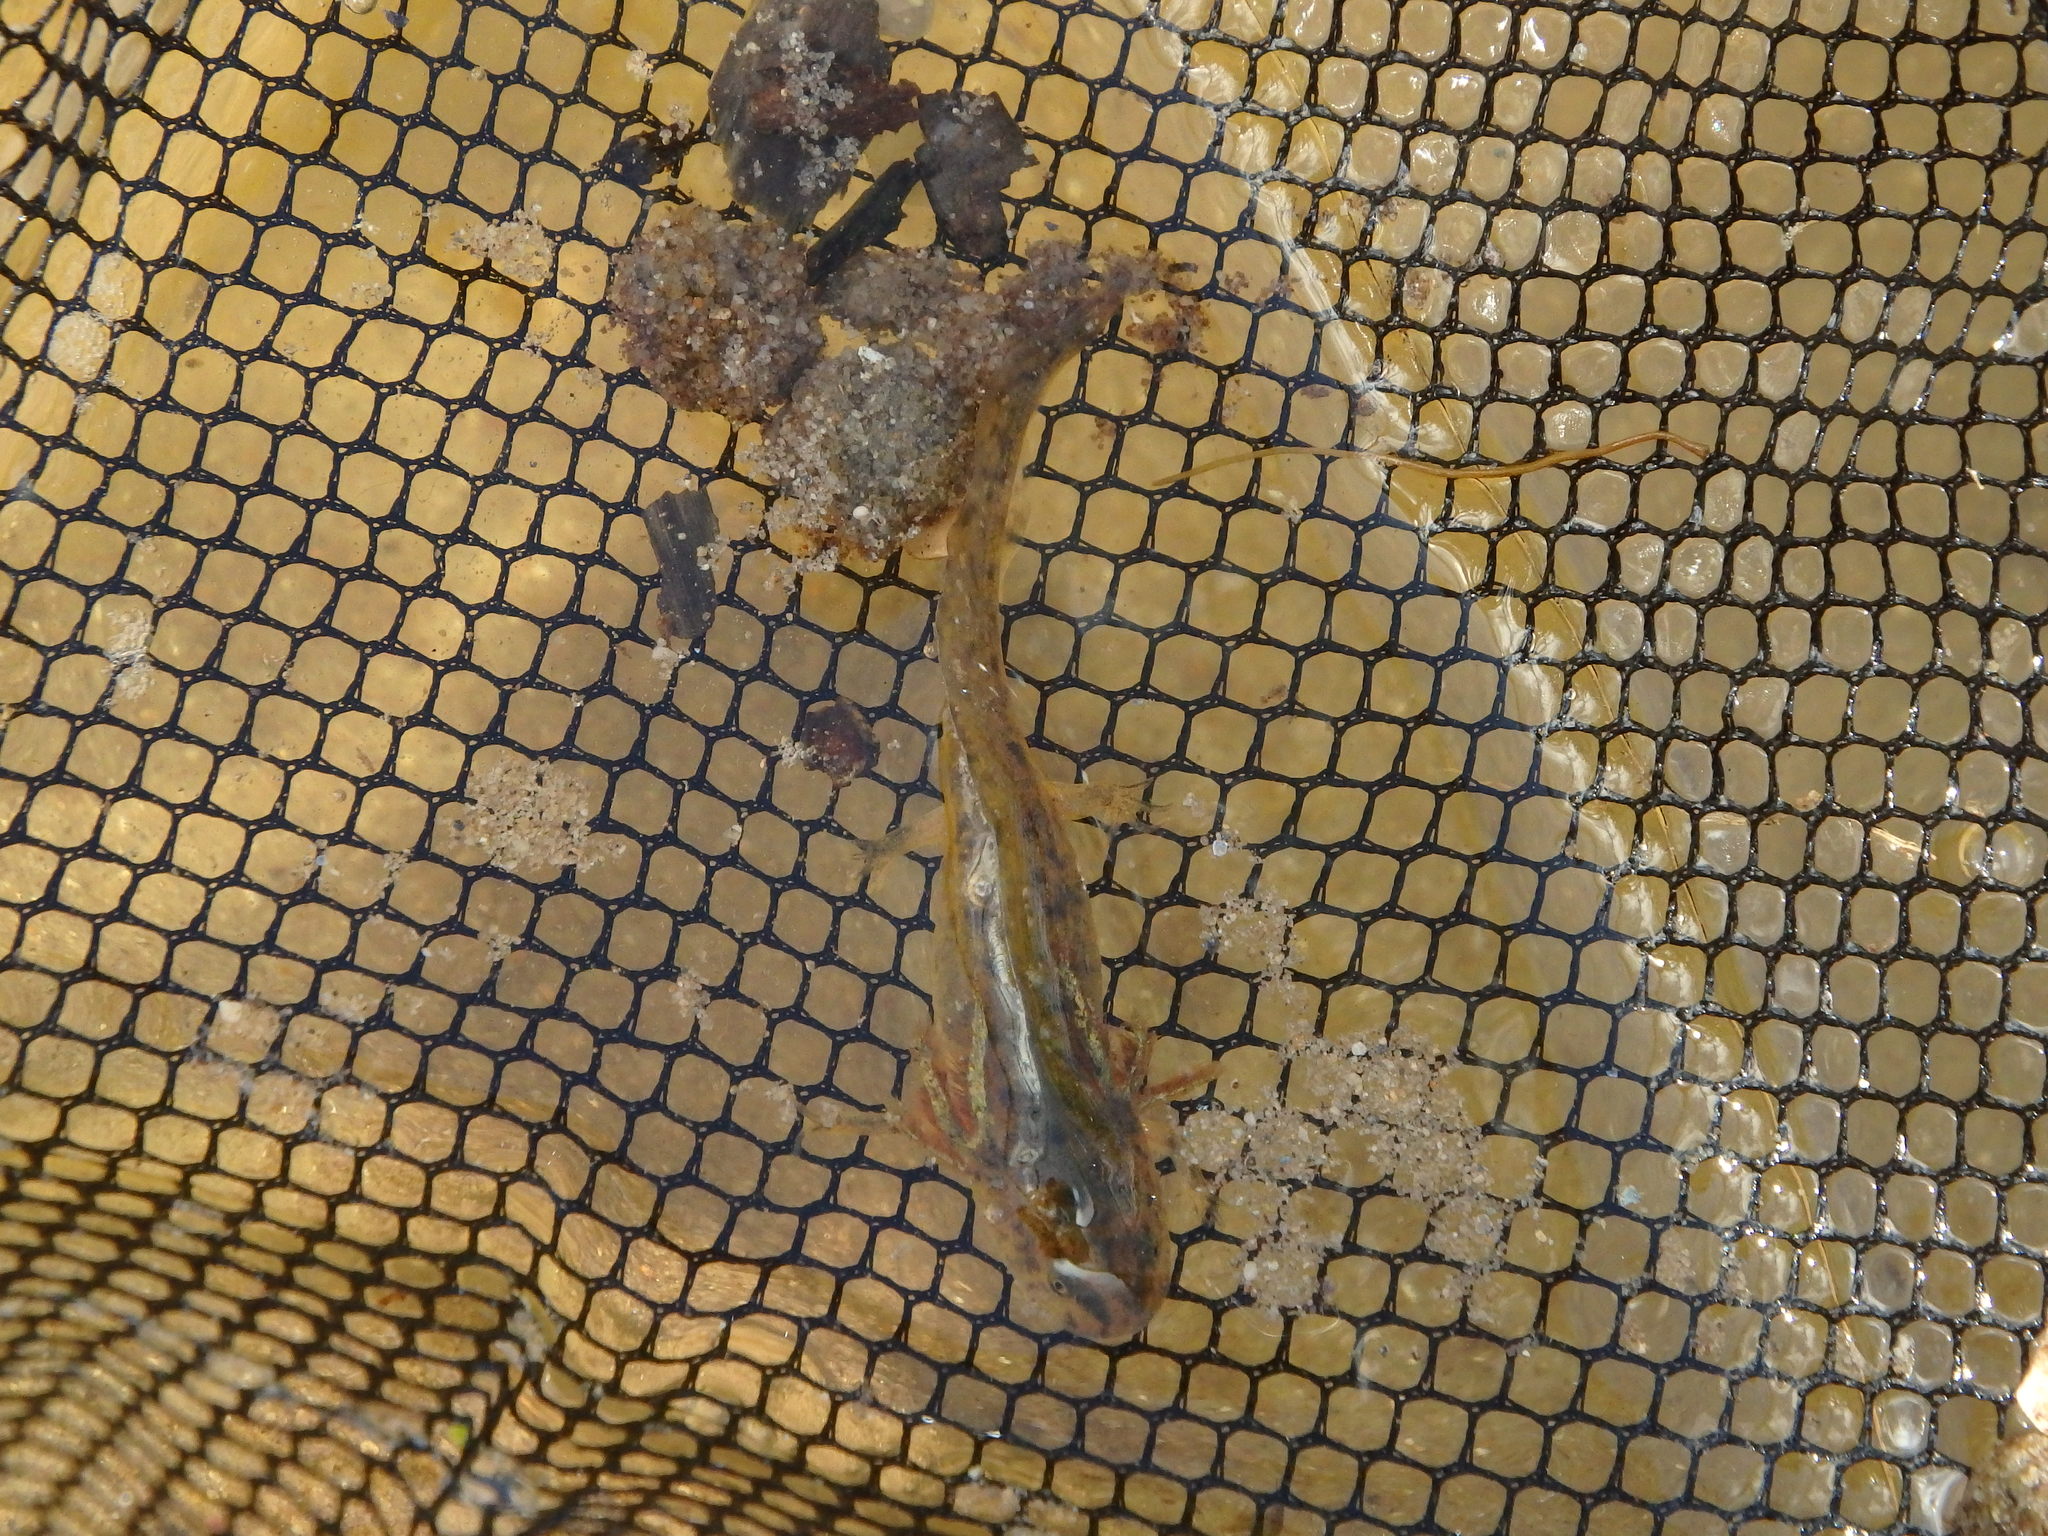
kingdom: Animalia
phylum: Chordata
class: Amphibia
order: Caudata
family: Salamandridae
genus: Pleurodeles
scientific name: Pleurodeles waltl
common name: Iberian ribbed newt
